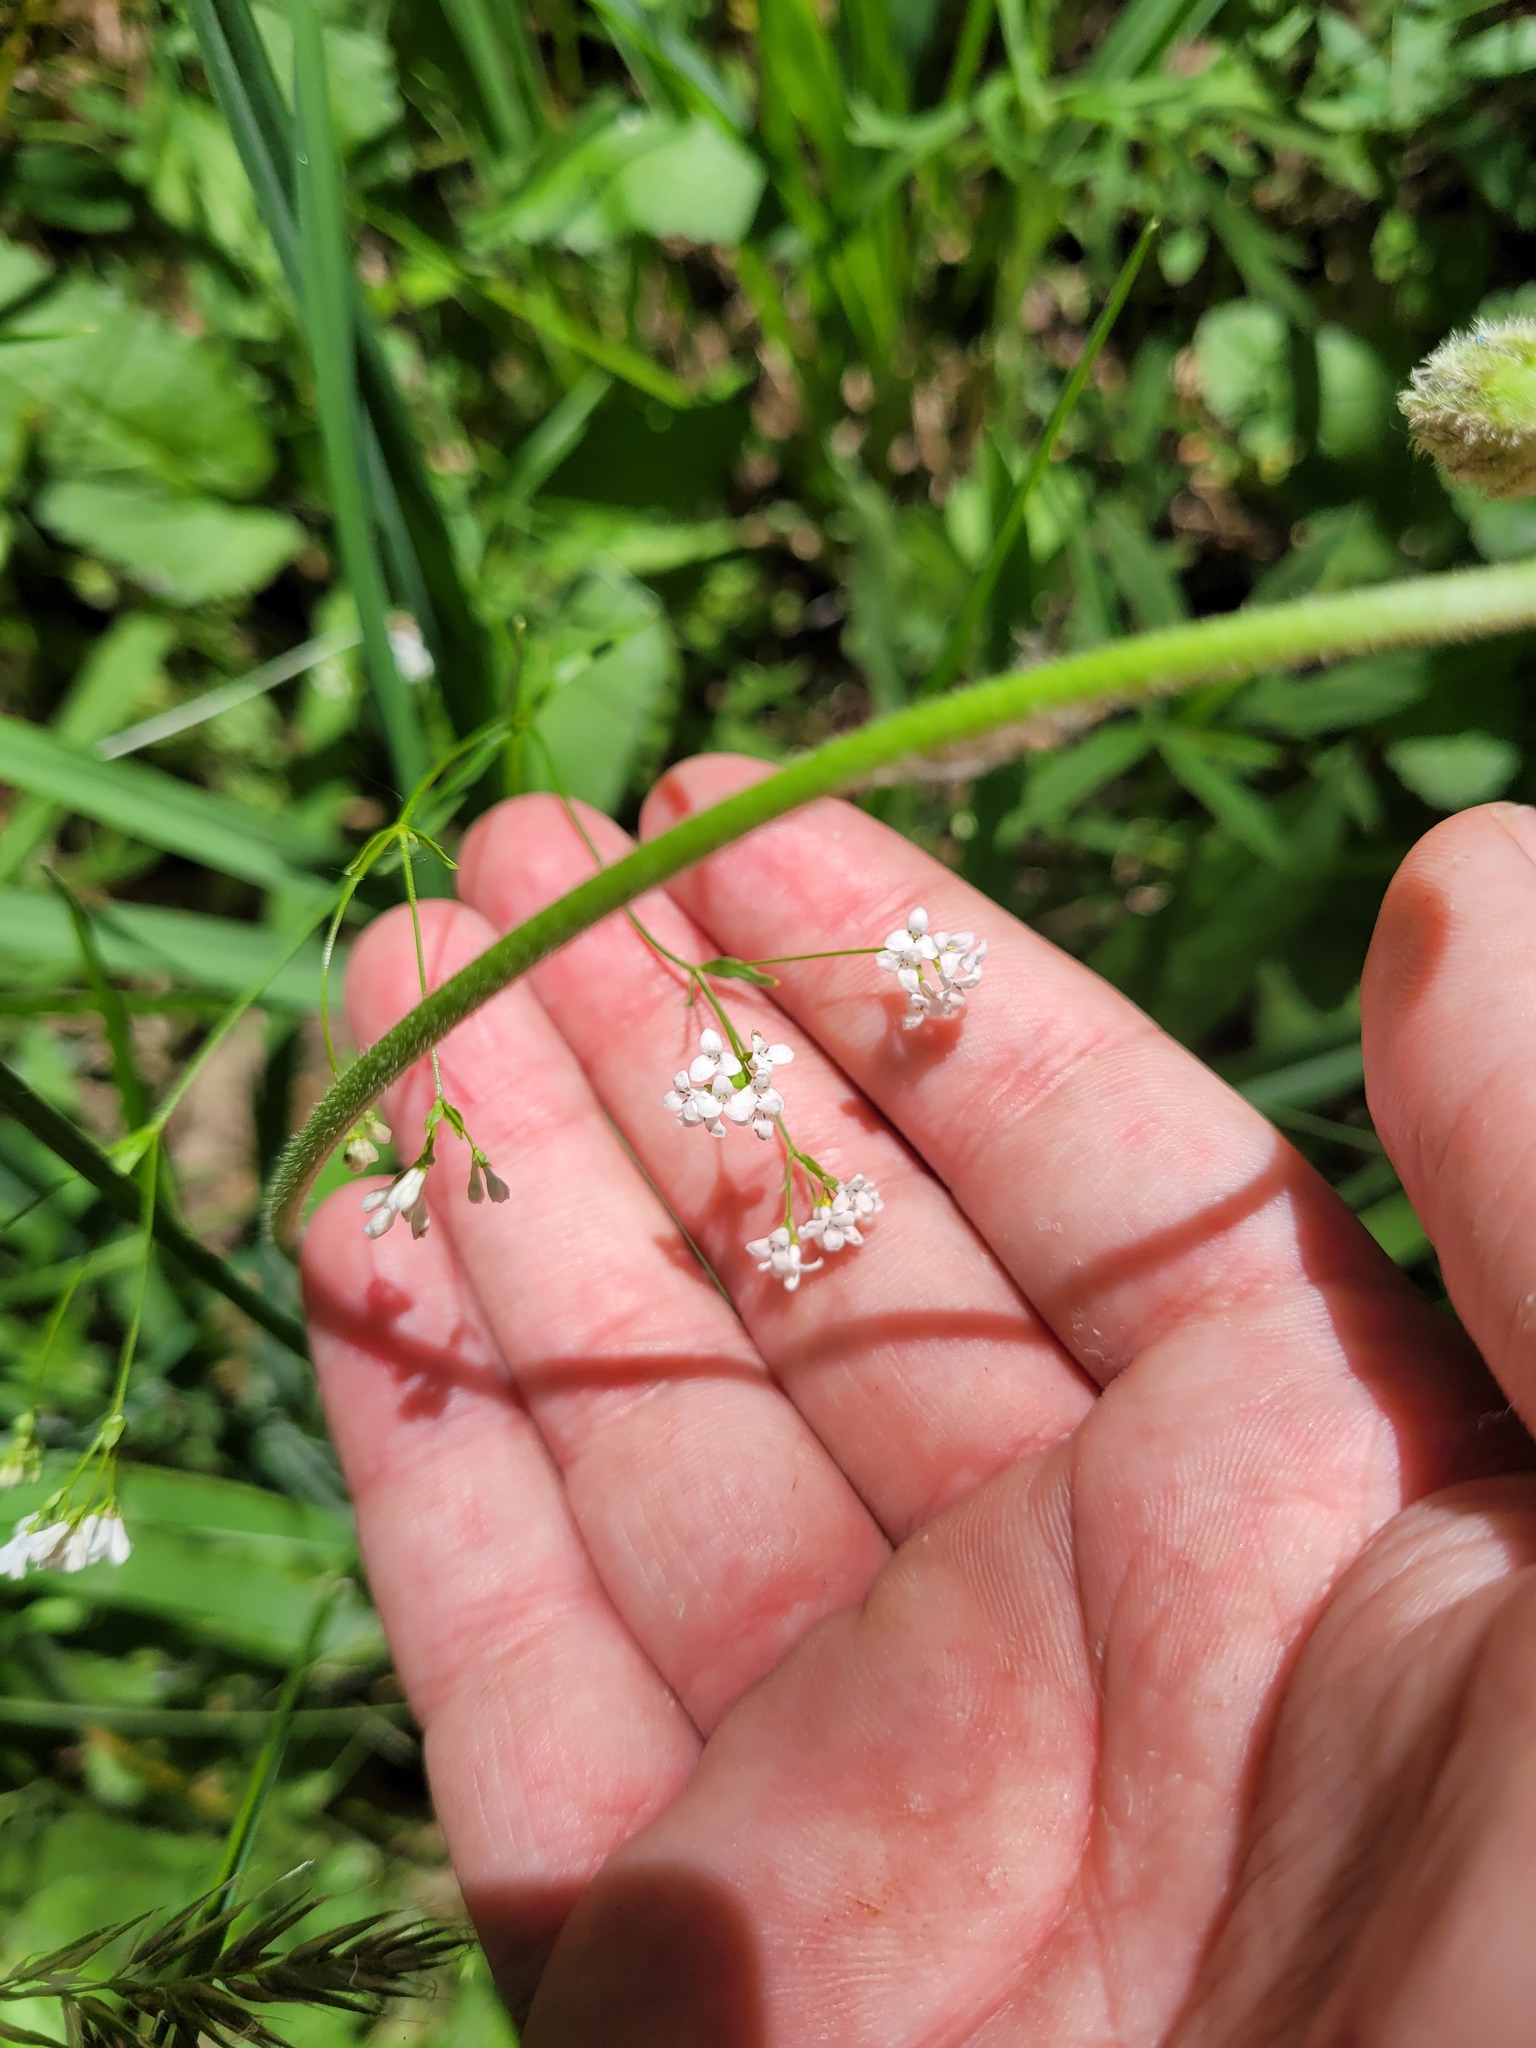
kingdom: Plantae
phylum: Tracheophyta
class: Magnoliopsida
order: Gentianales
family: Rubiaceae
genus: Asperula
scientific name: Asperula tinctoria
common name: Dyer's woodruff
